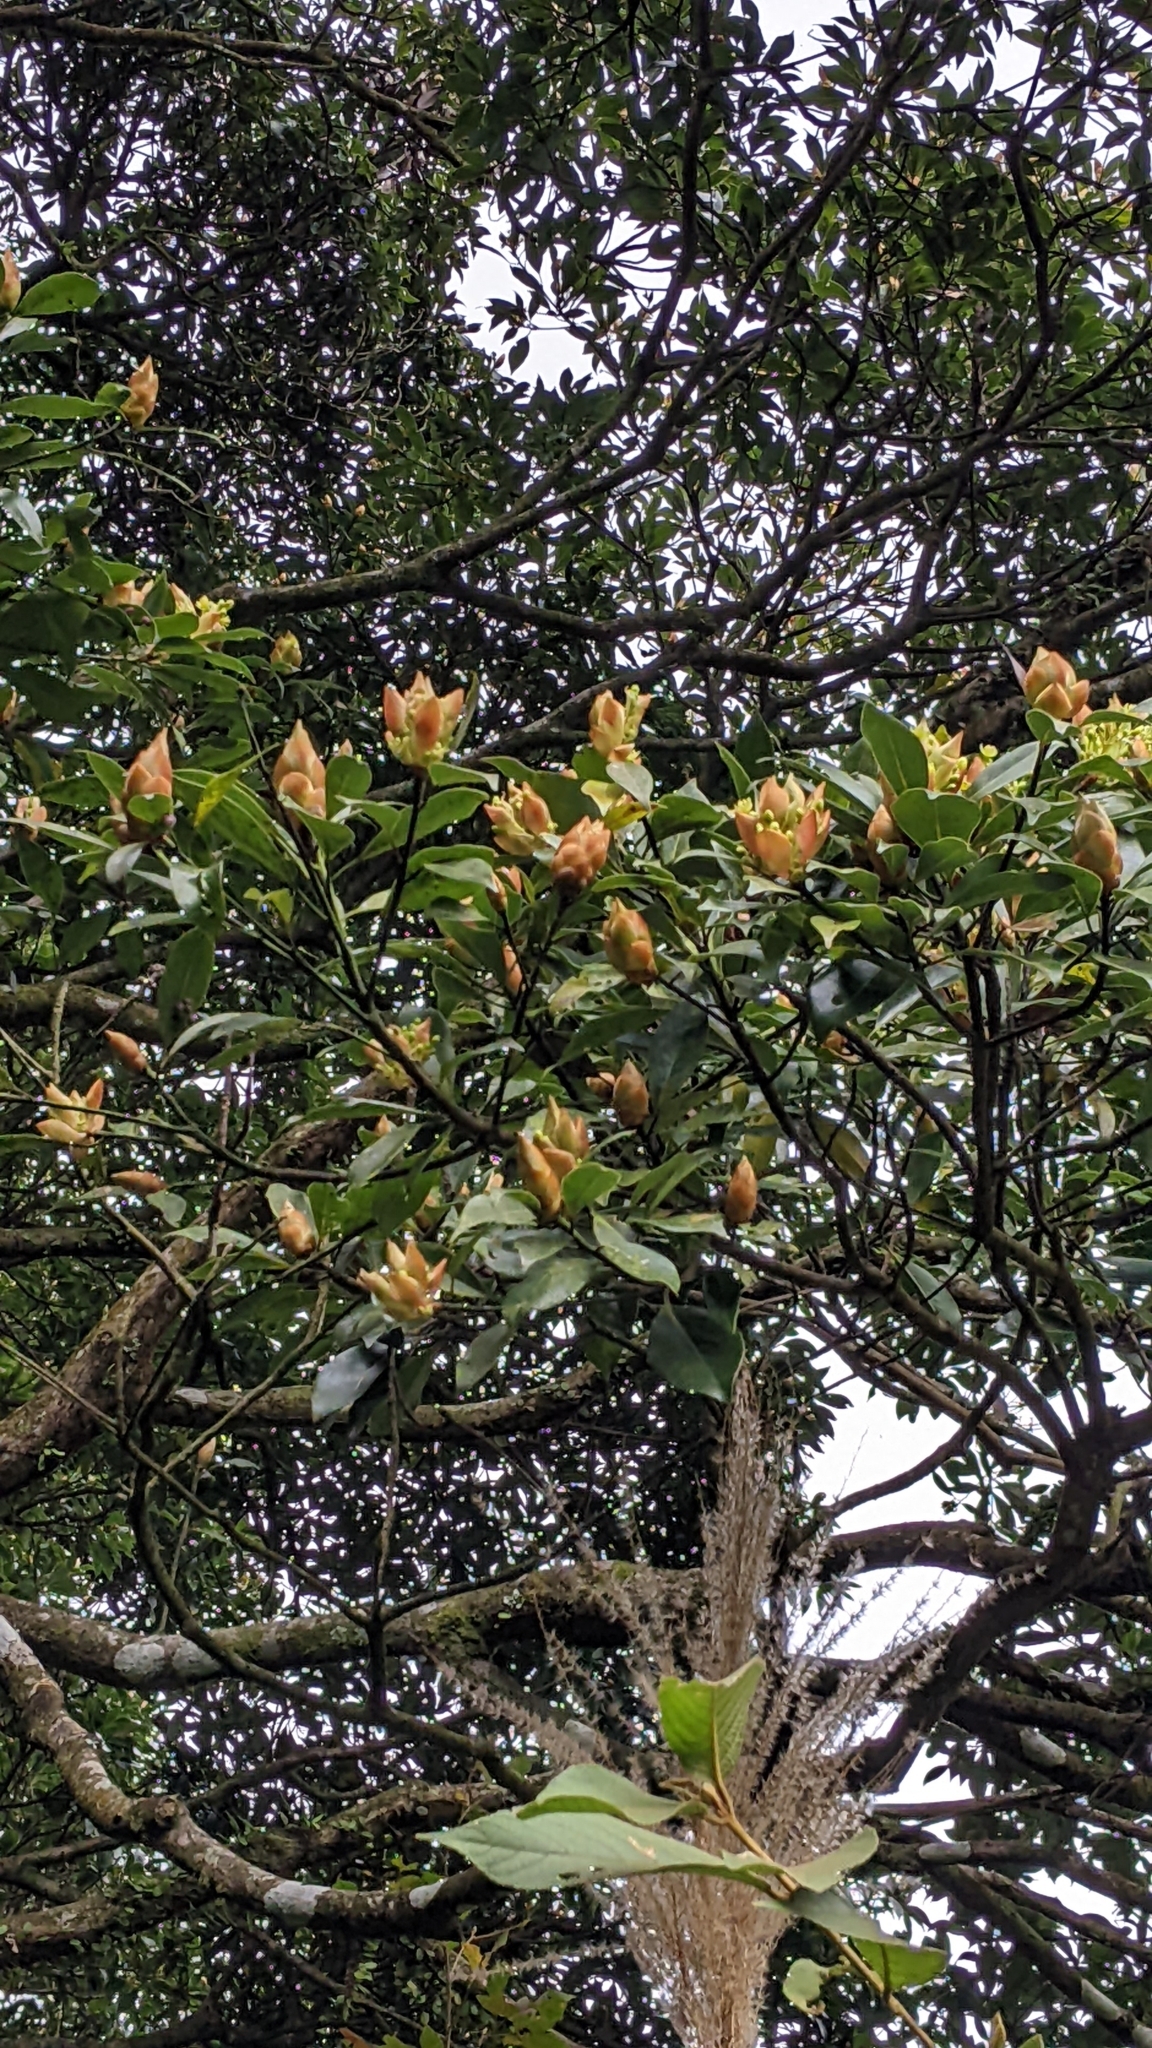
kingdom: Plantae
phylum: Tracheophyta
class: Magnoliopsida
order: Laurales
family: Lauraceae
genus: Machilus
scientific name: Machilus thunbergii
